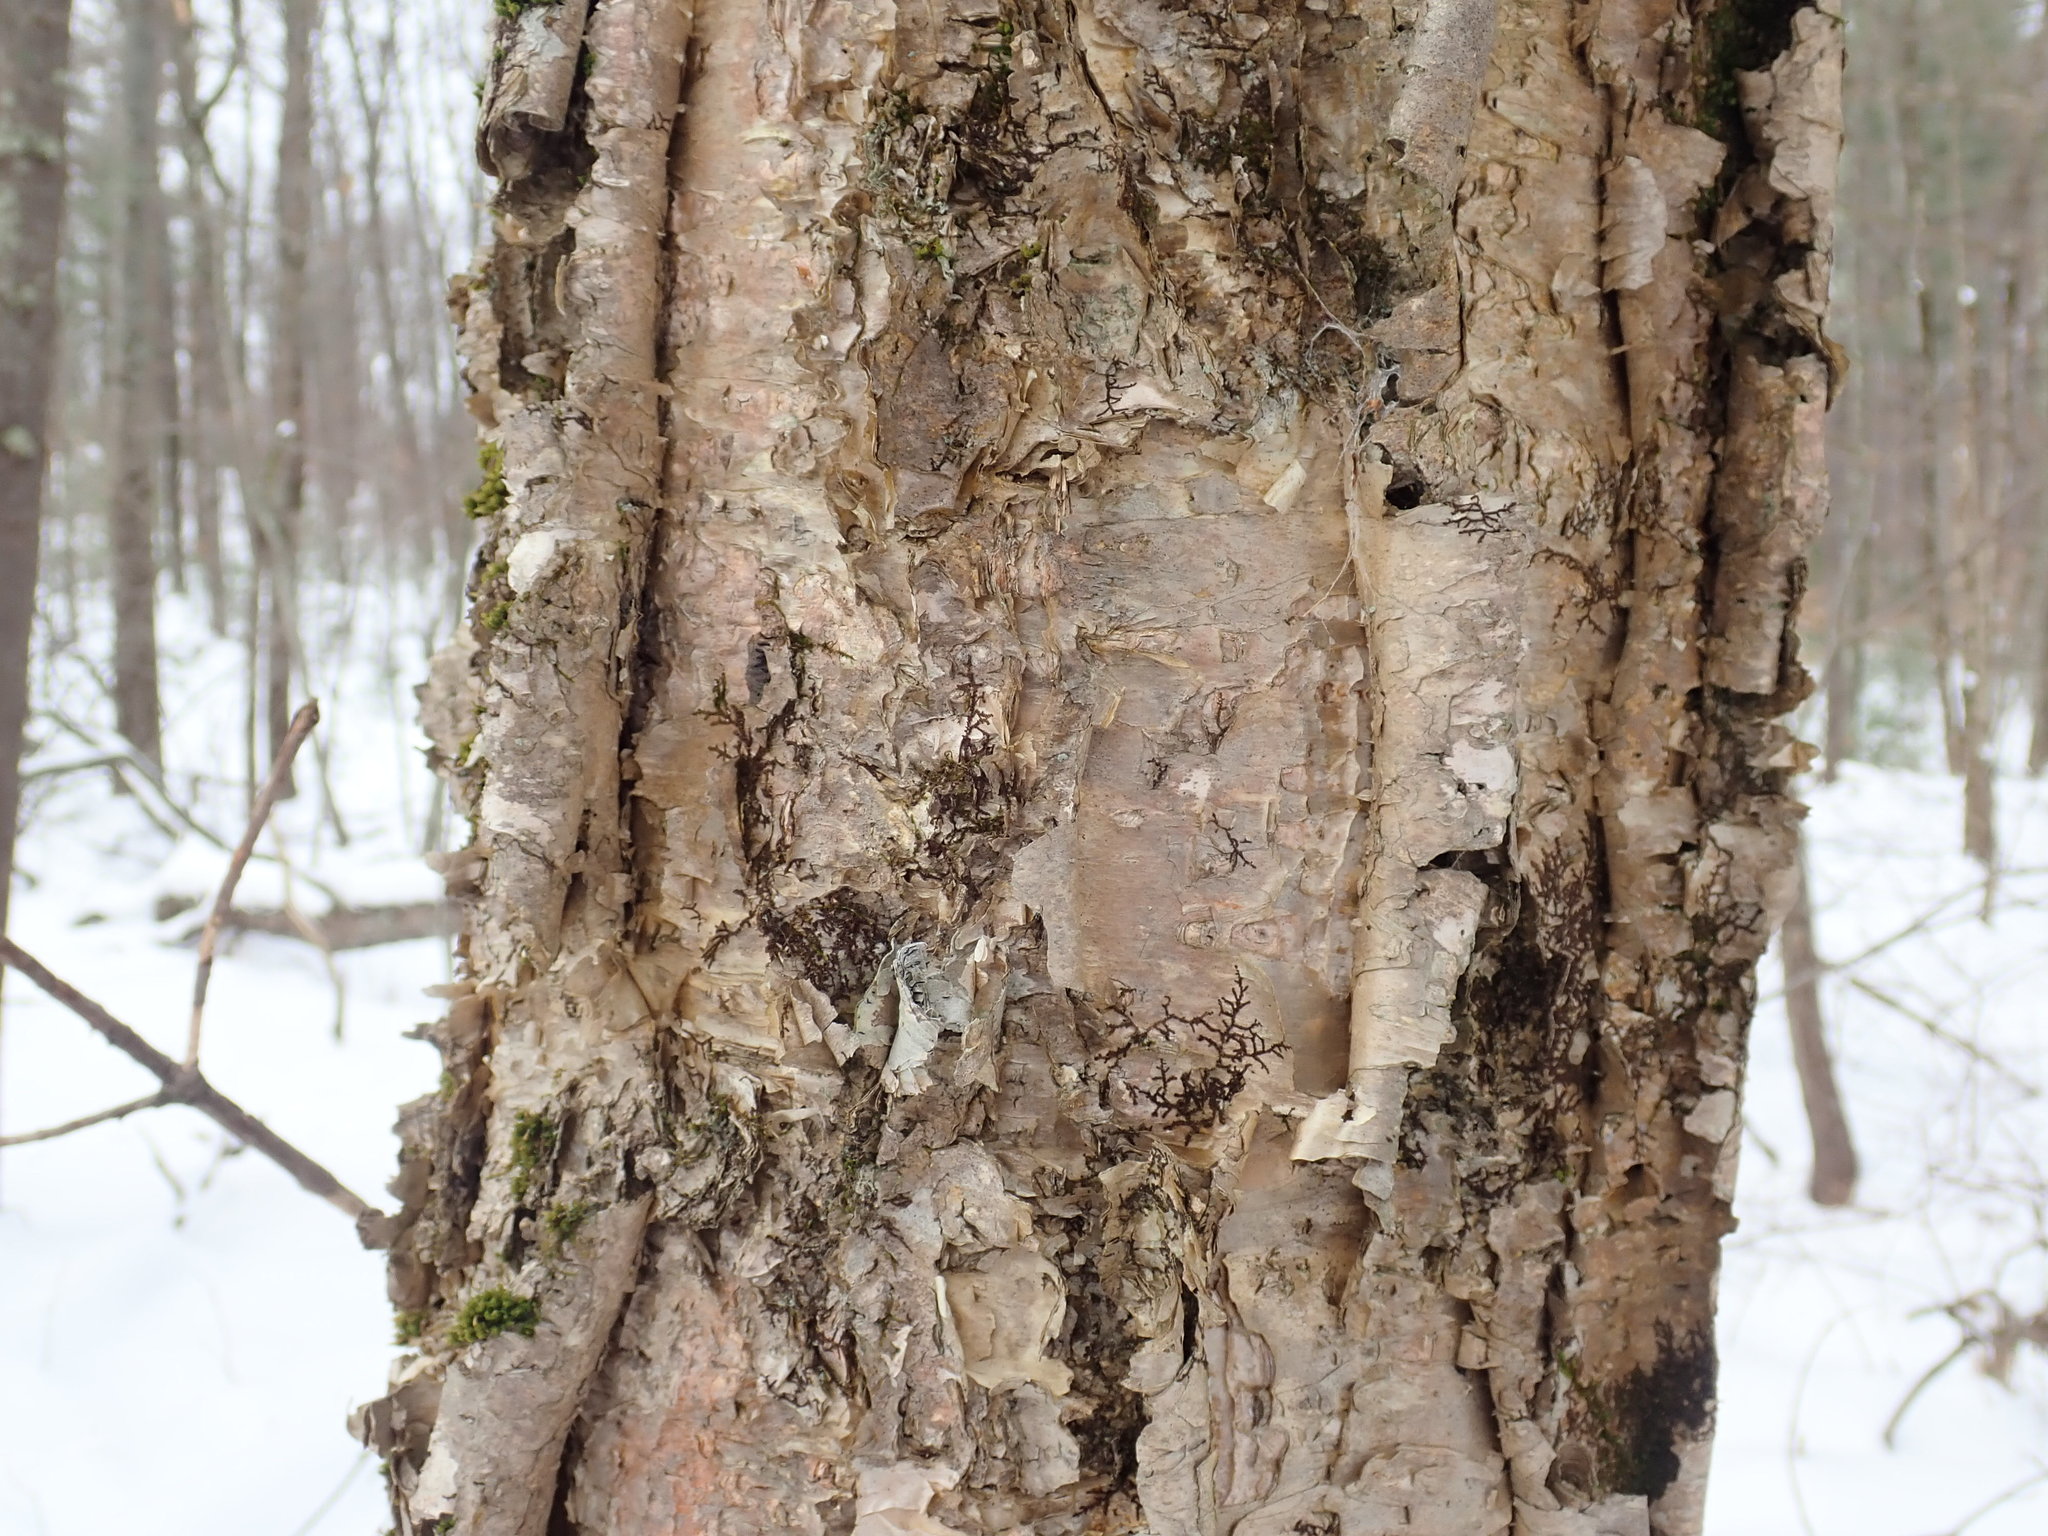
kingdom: Plantae
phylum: Tracheophyta
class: Magnoliopsida
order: Fagales
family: Betulaceae
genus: Betula
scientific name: Betula alleghaniensis
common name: Yellow birch
